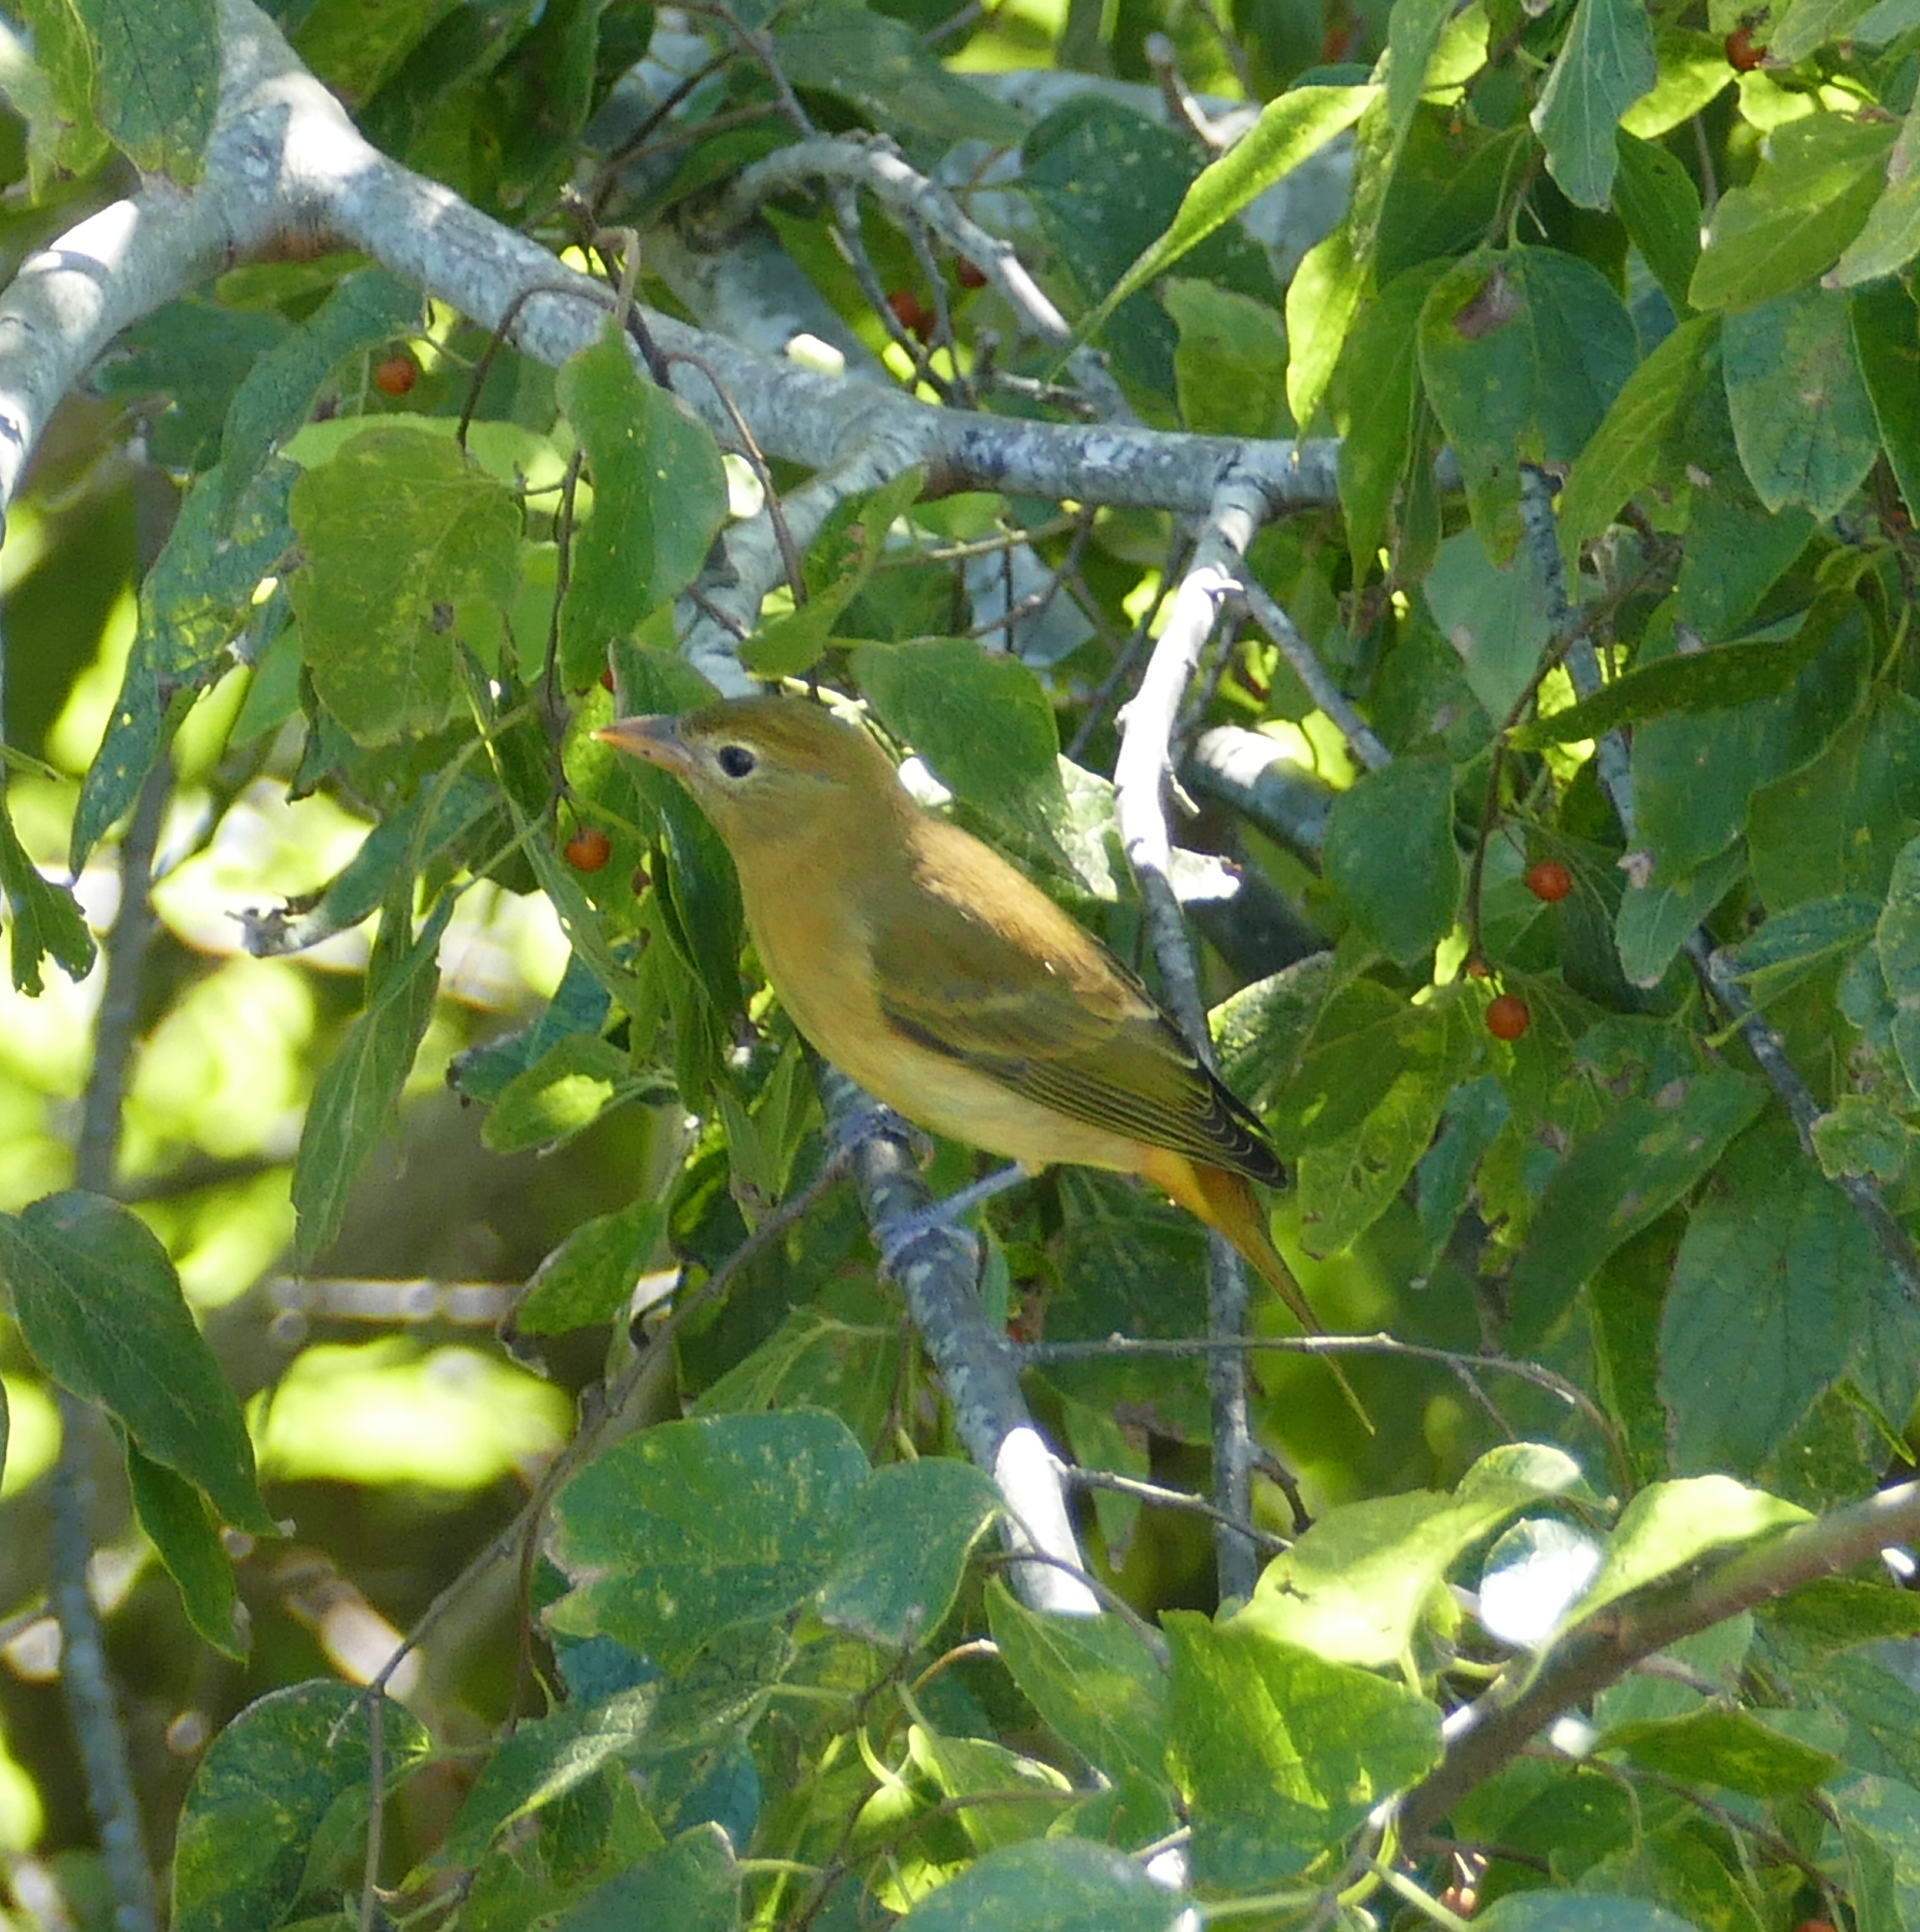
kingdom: Animalia
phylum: Chordata
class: Aves
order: Passeriformes
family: Cardinalidae
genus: Piranga
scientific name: Piranga rubra
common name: Summer tanager
